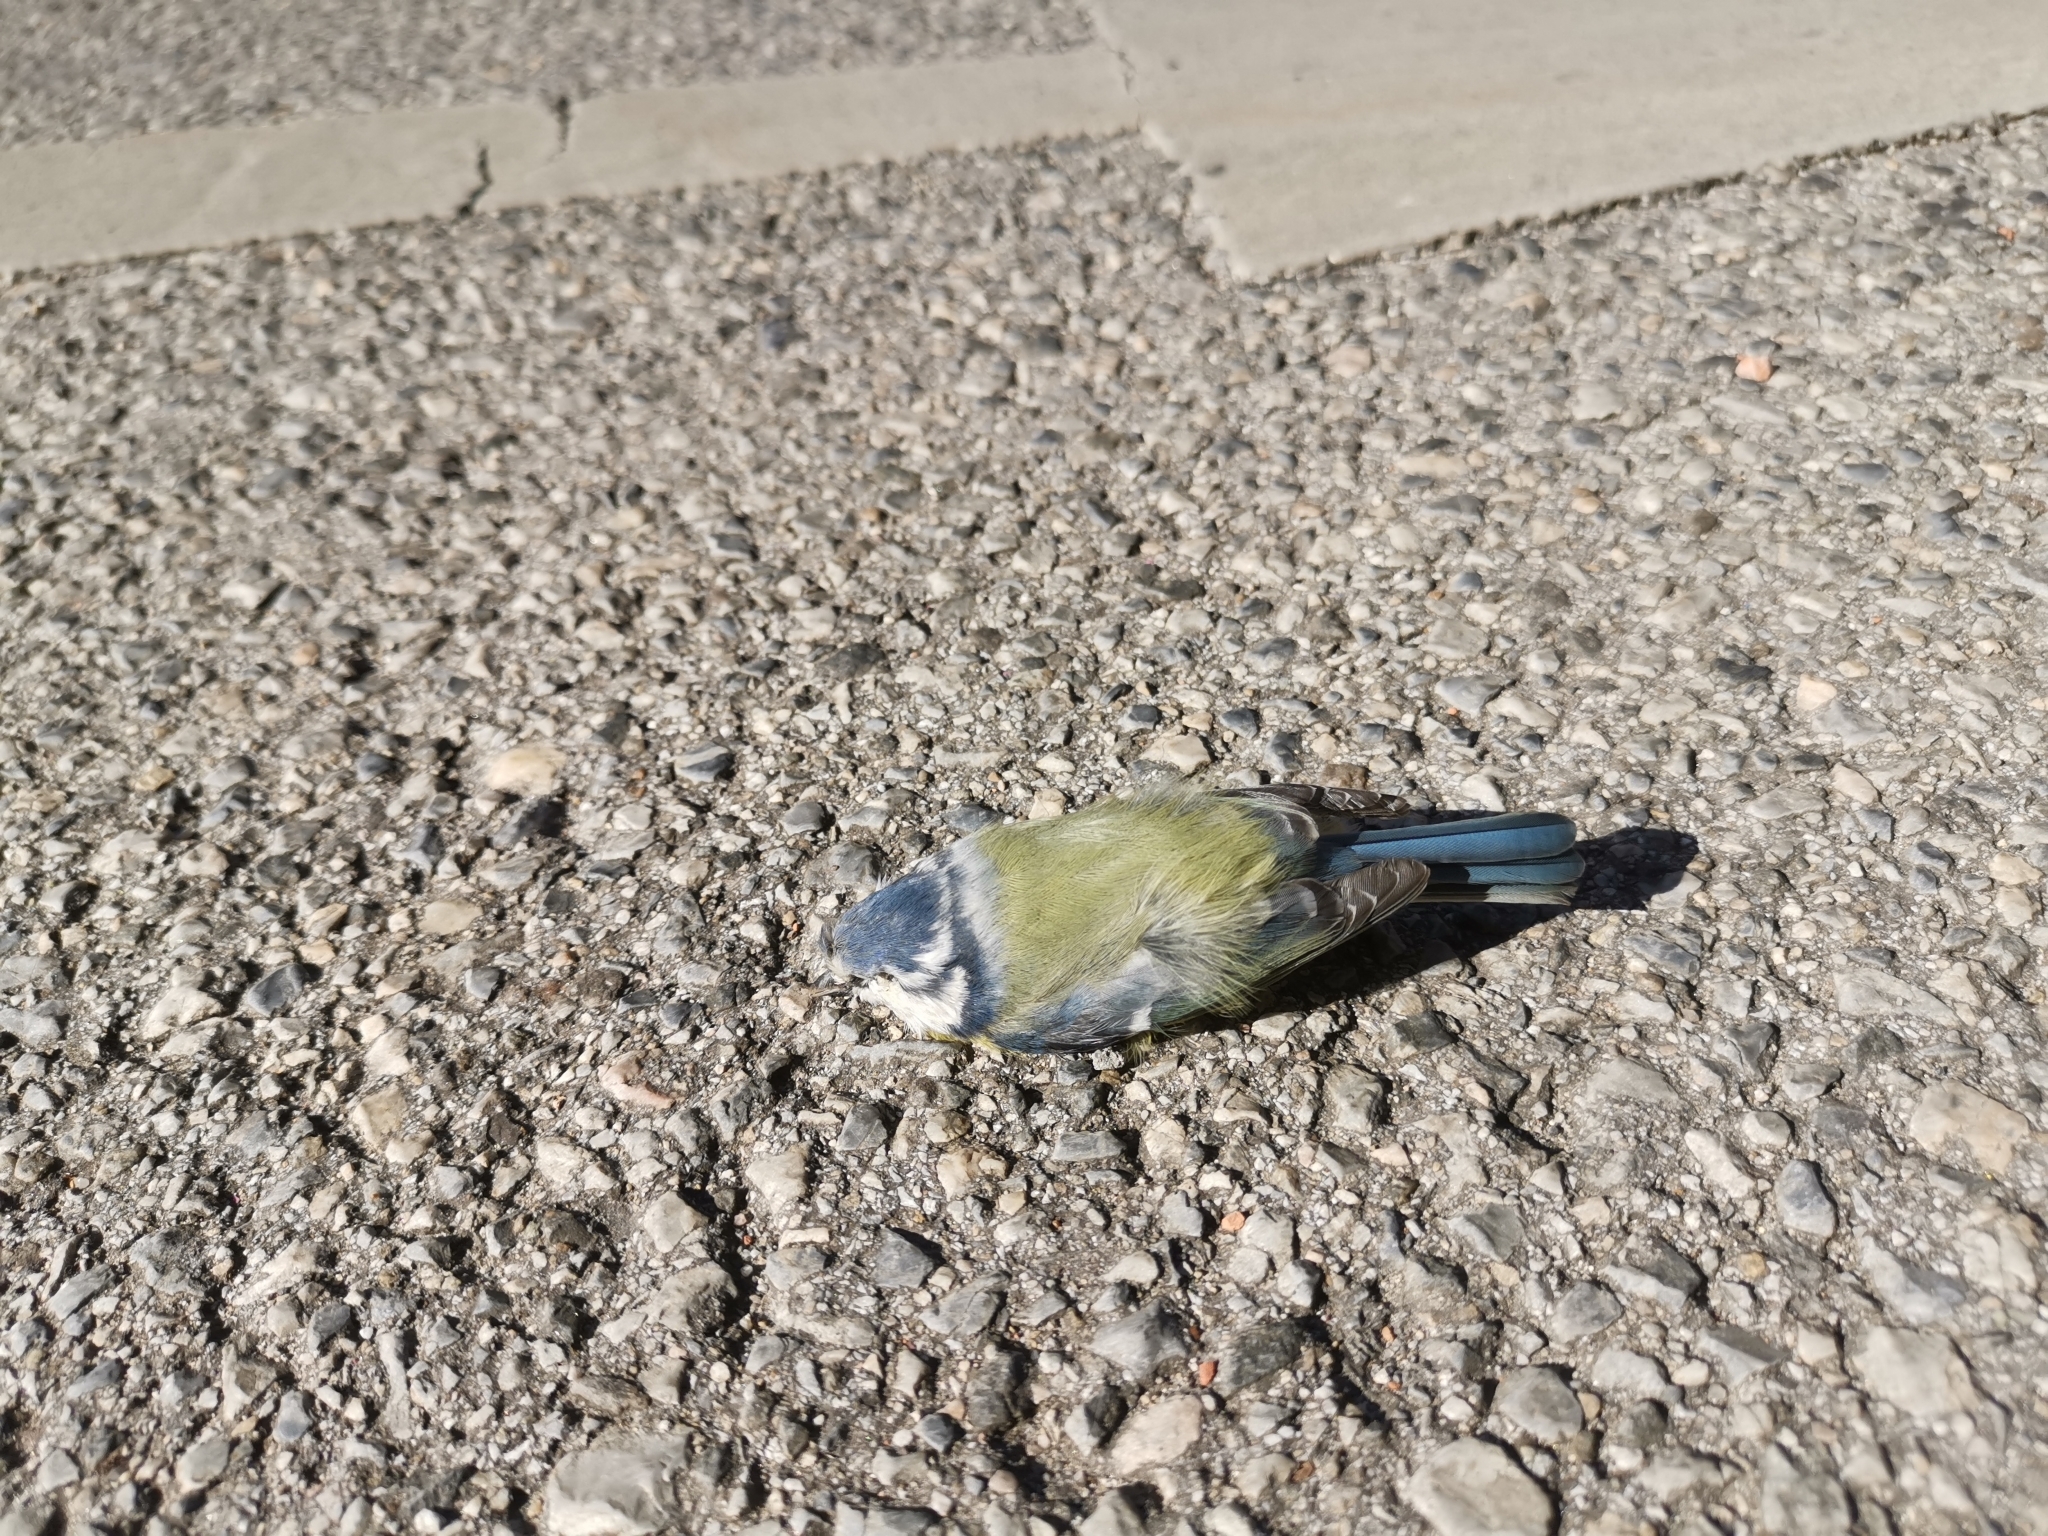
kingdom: Animalia
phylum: Chordata
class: Aves
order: Passeriformes
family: Paridae
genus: Cyanistes
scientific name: Cyanistes caeruleus
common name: Eurasian blue tit
